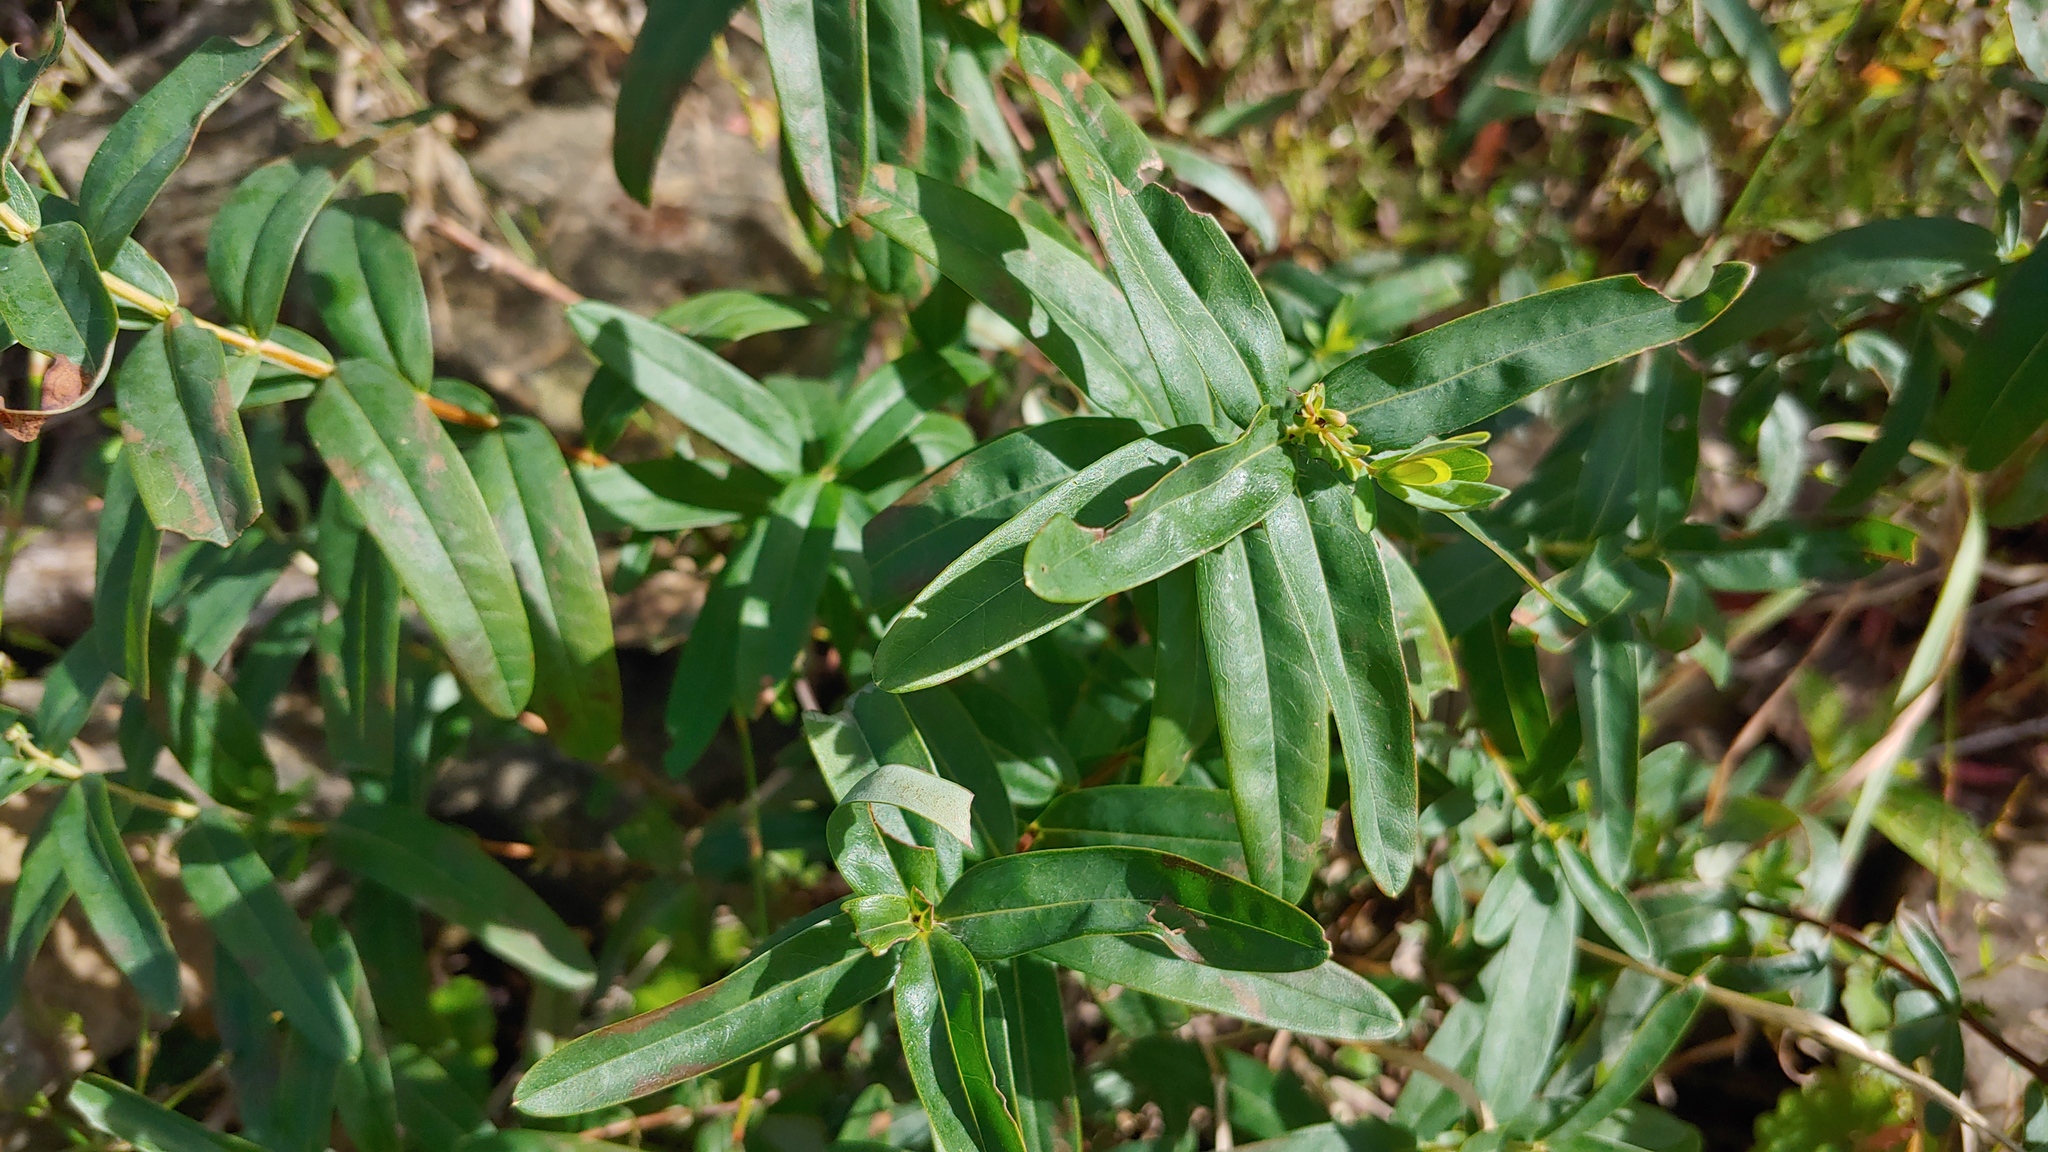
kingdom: Plantae
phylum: Tracheophyta
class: Magnoliopsida
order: Malpighiales
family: Hypericaceae
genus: Hypericum
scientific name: Hypericum sphaerocarpum
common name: Round-fruited st. john's-wort
